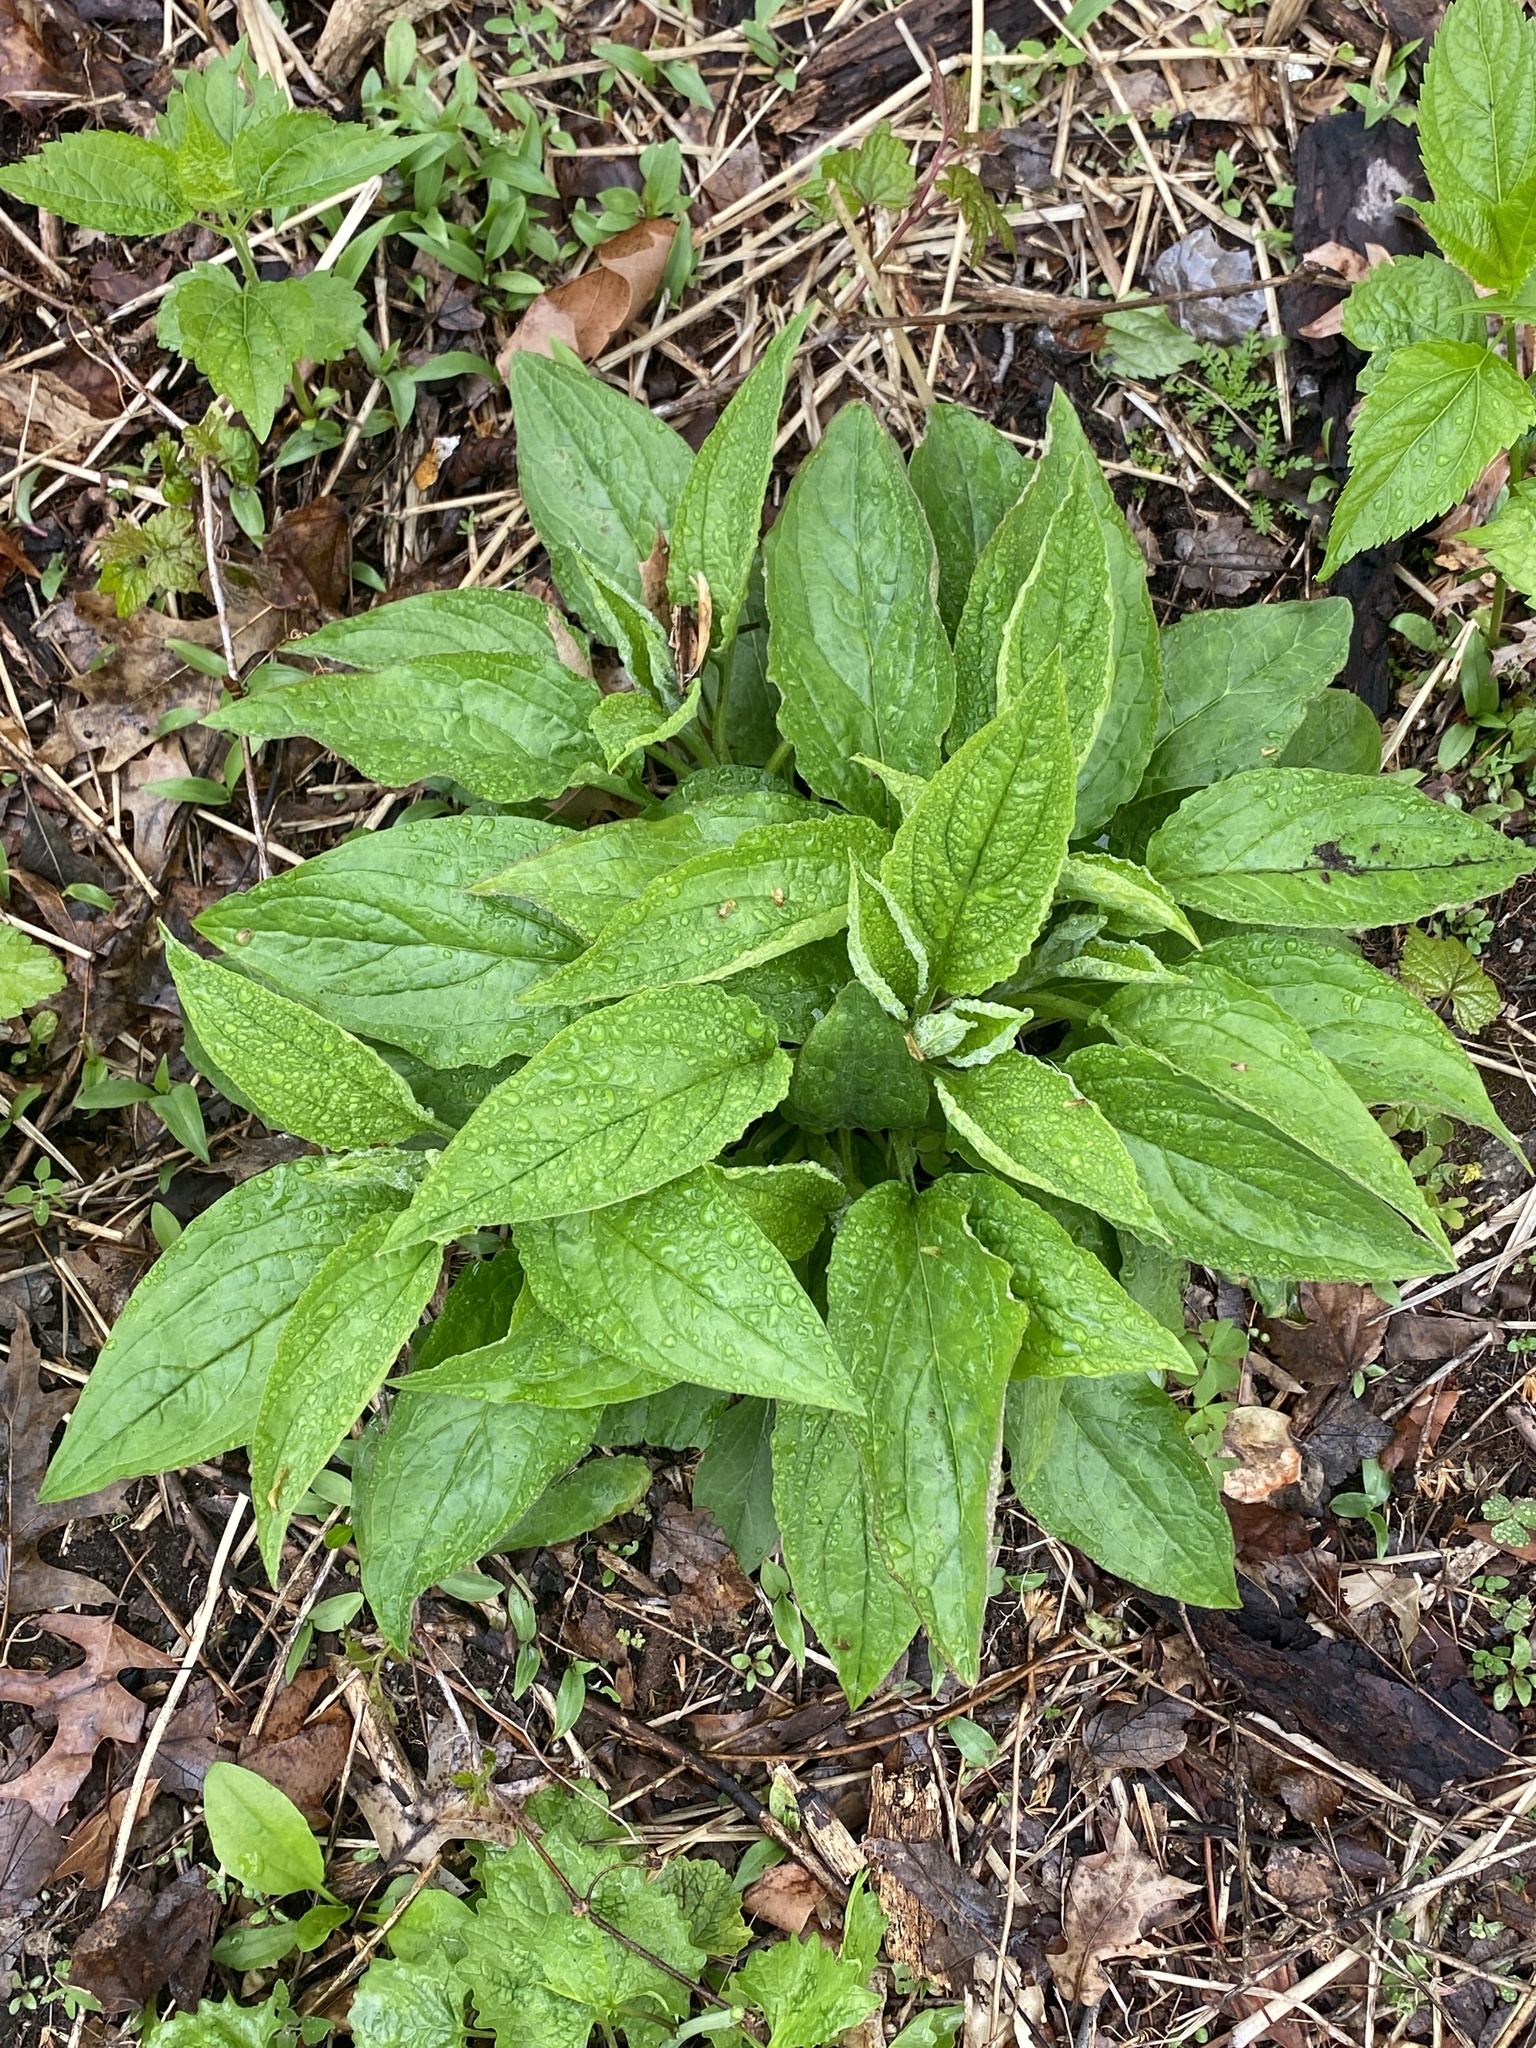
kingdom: Plantae
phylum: Tracheophyta
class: Magnoliopsida
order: Boraginales
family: Boraginaceae
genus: Hackelia
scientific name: Hackelia virginiana
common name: Beggar's-lice
